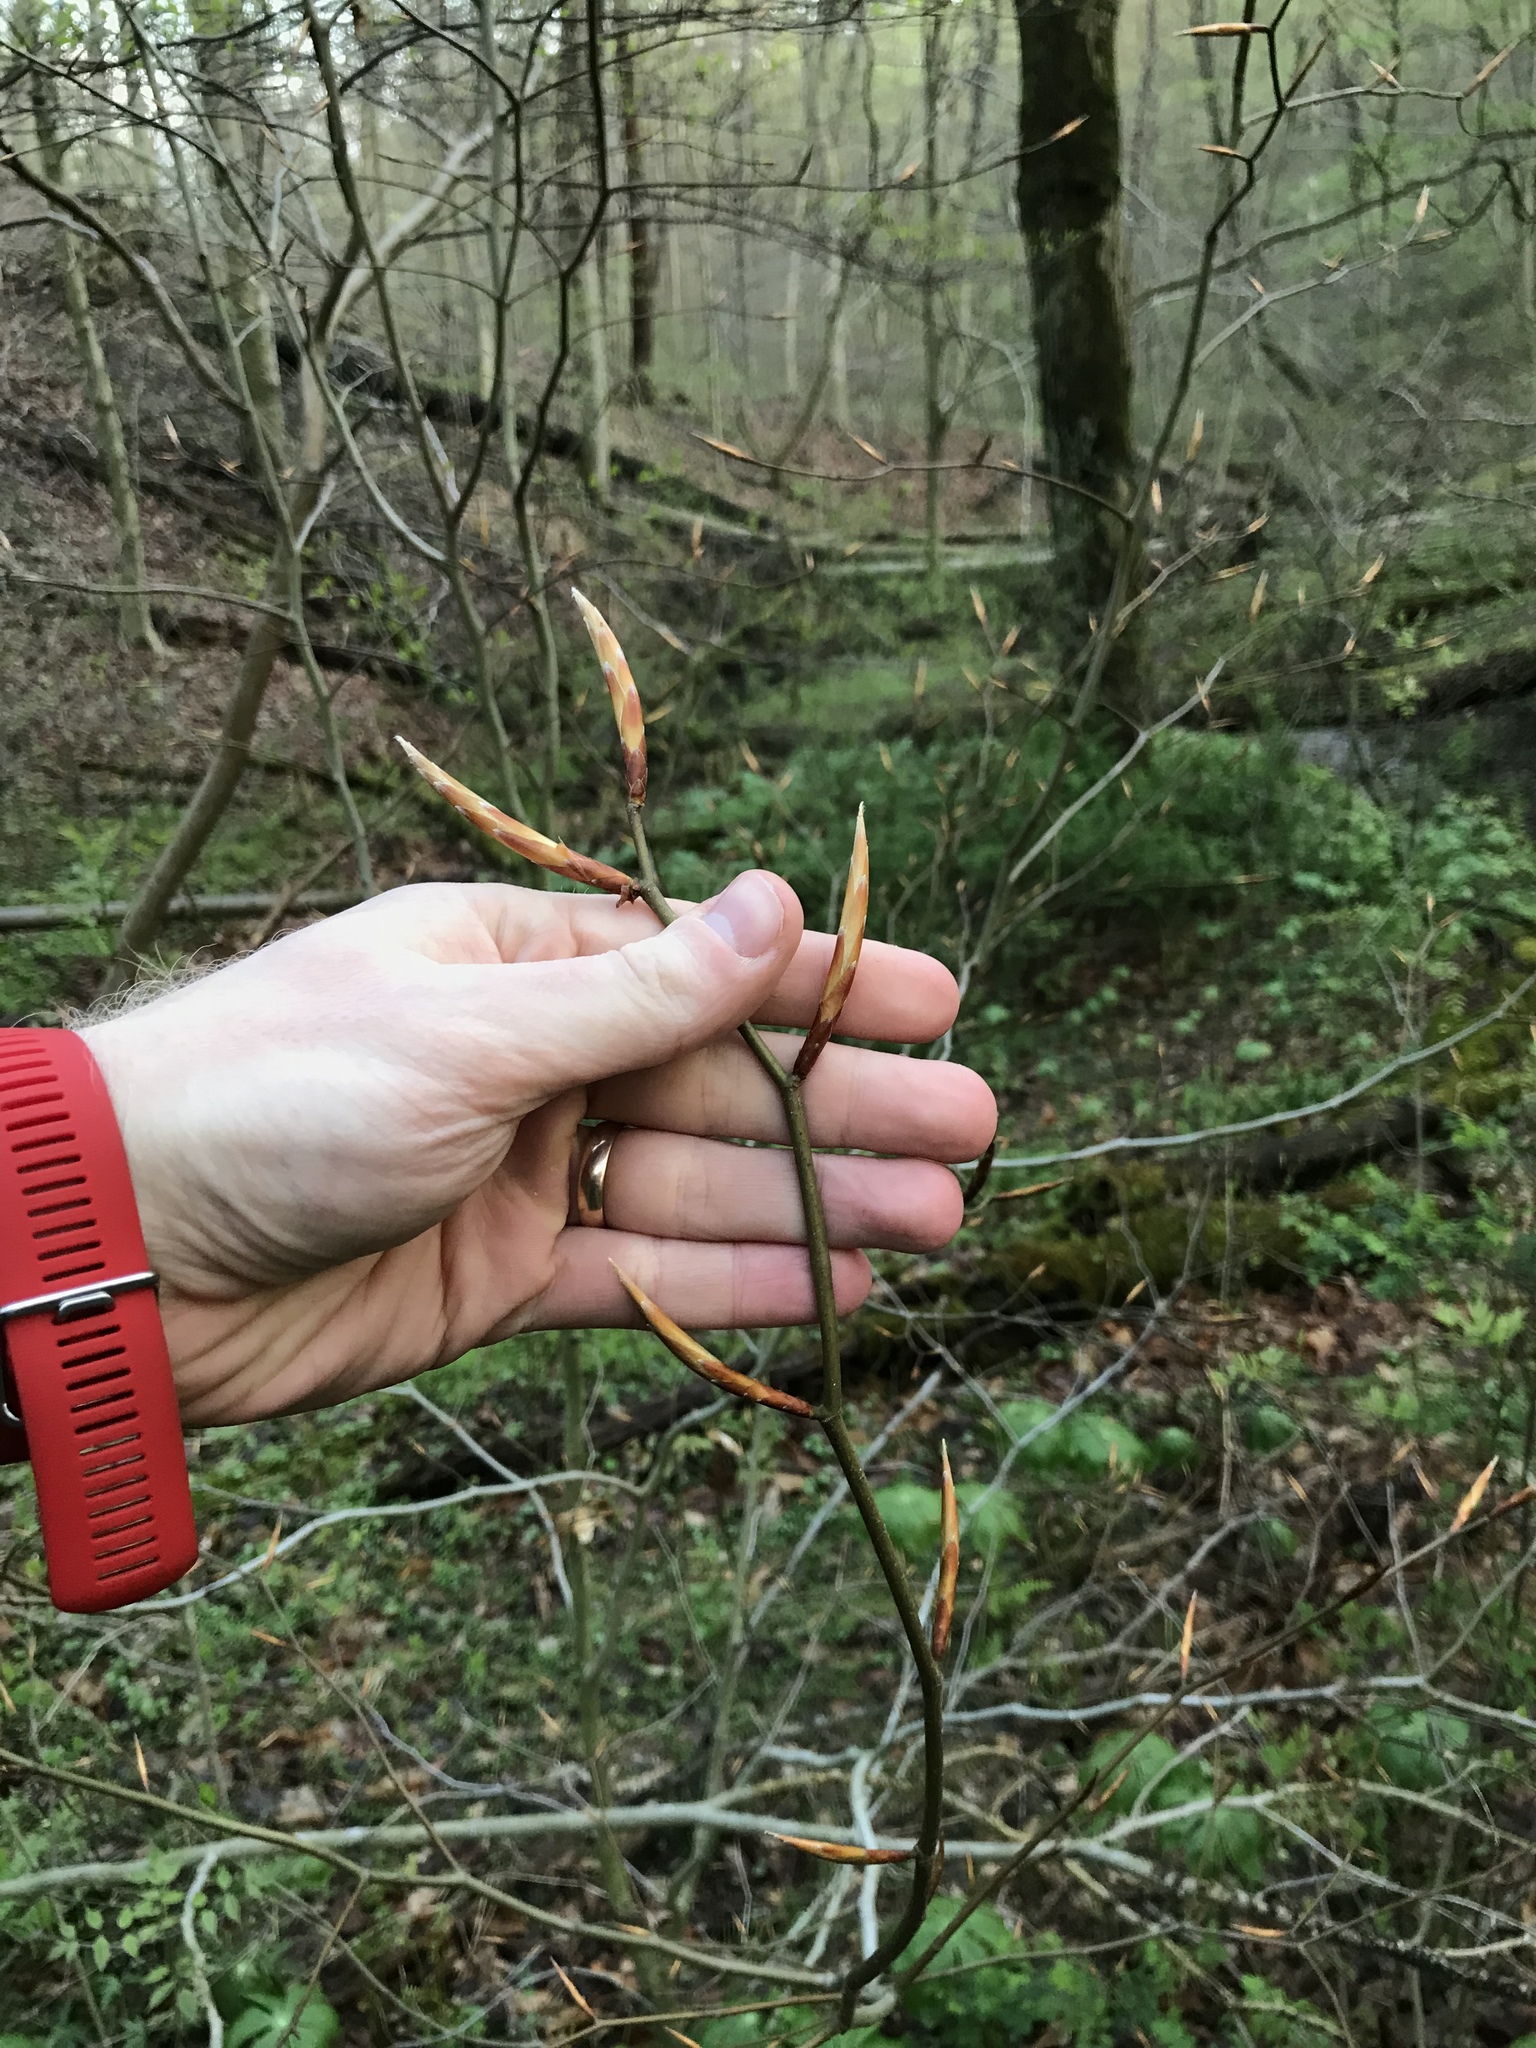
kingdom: Plantae
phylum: Tracheophyta
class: Magnoliopsida
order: Fagales
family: Fagaceae
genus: Fagus
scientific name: Fagus grandifolia
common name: American beech
